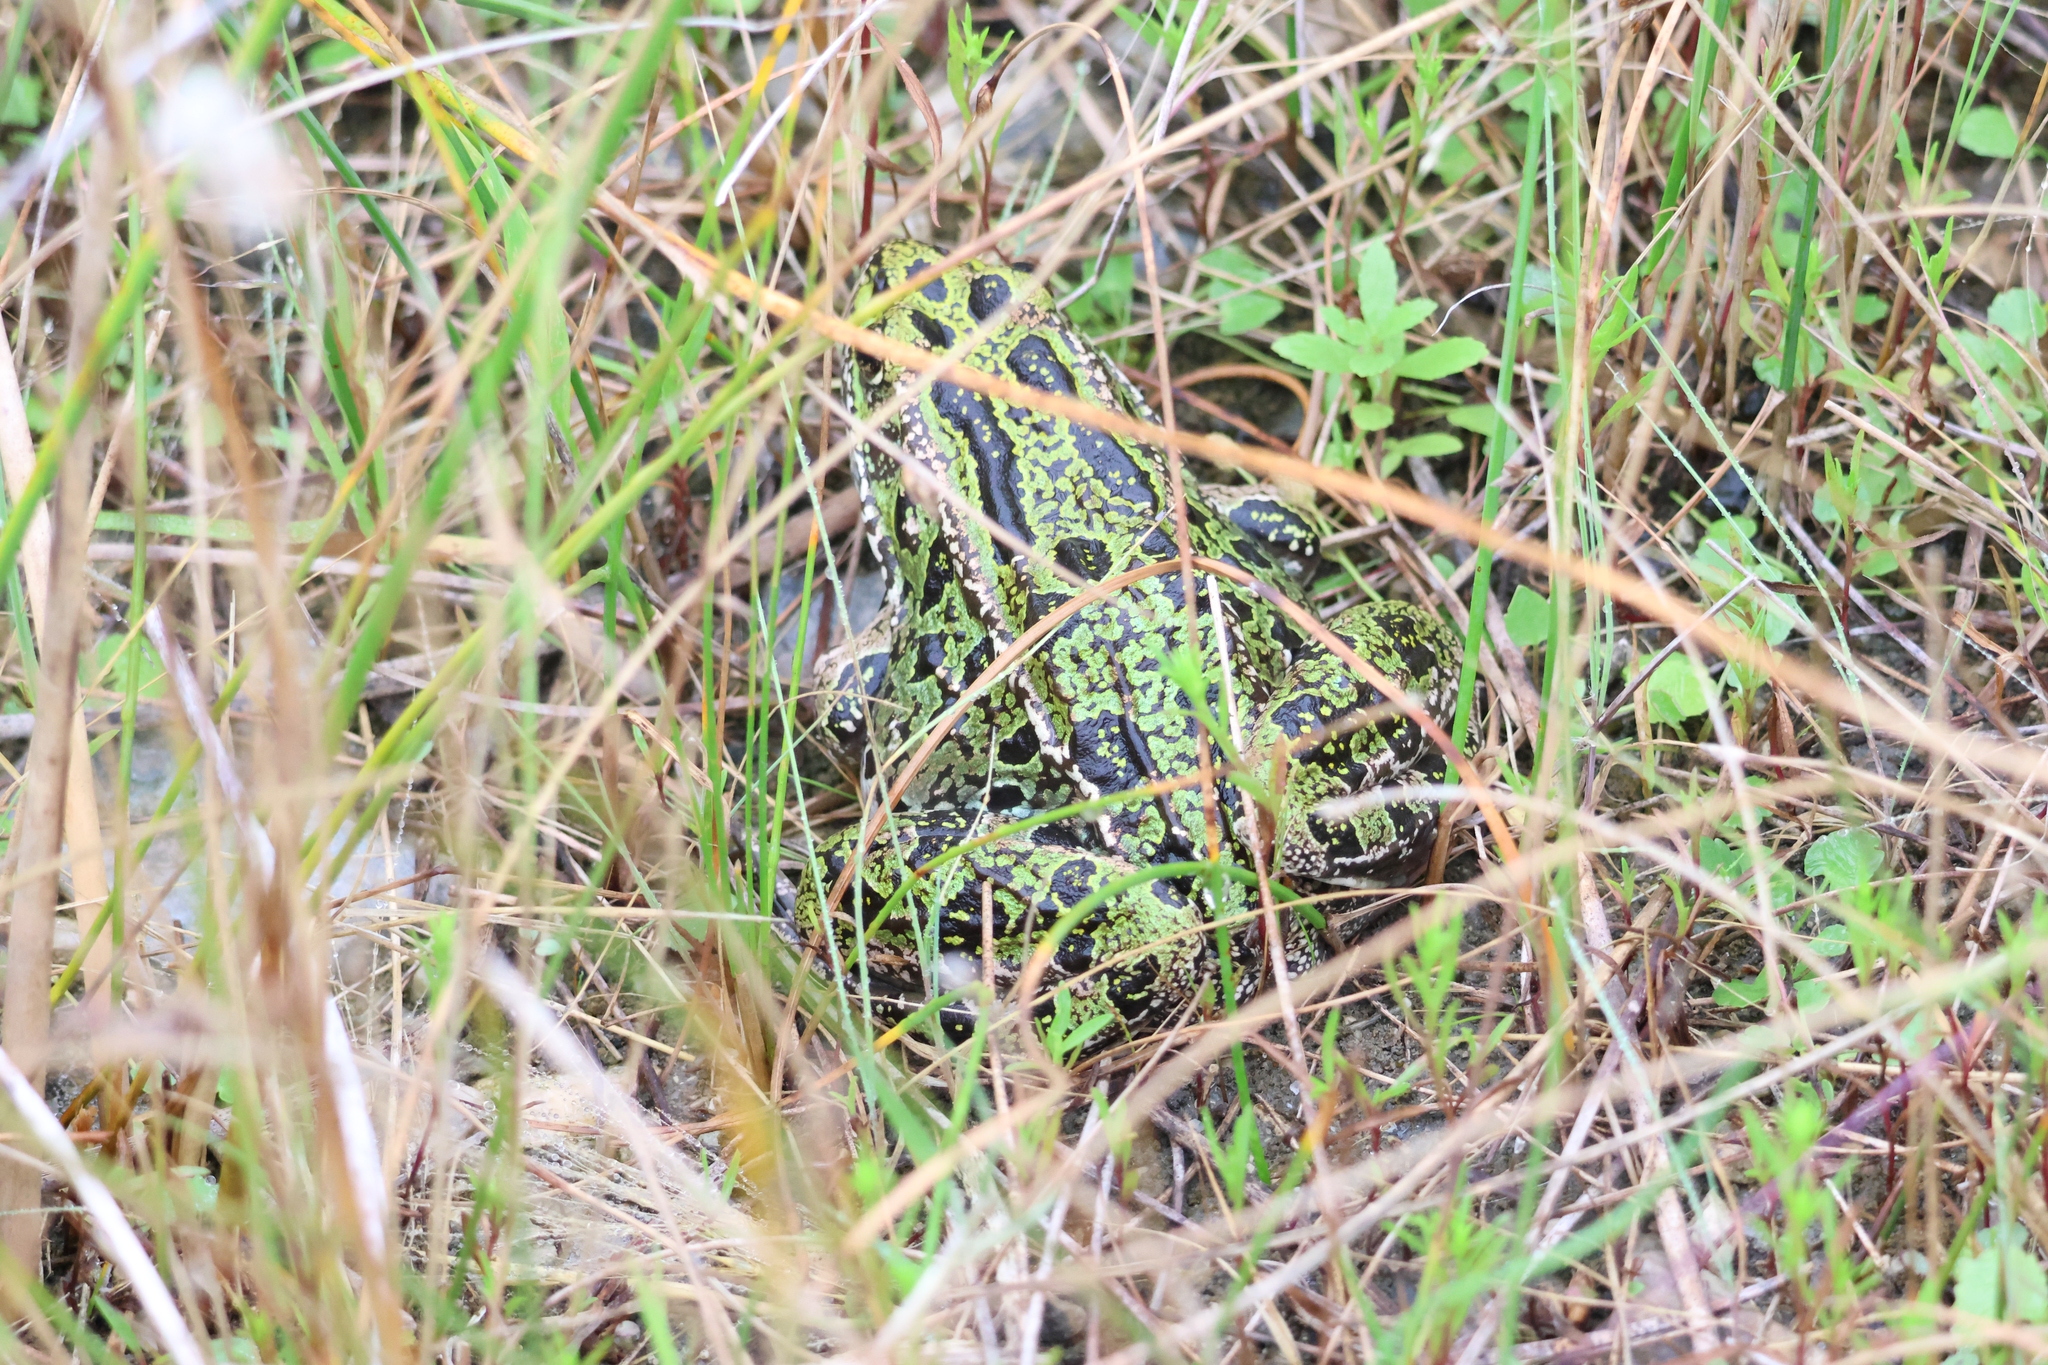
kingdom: Animalia
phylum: Chordata
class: Amphibia
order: Anura
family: Ranidae
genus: Lithobates
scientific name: Lithobates pipiens
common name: Northern leopard frog
